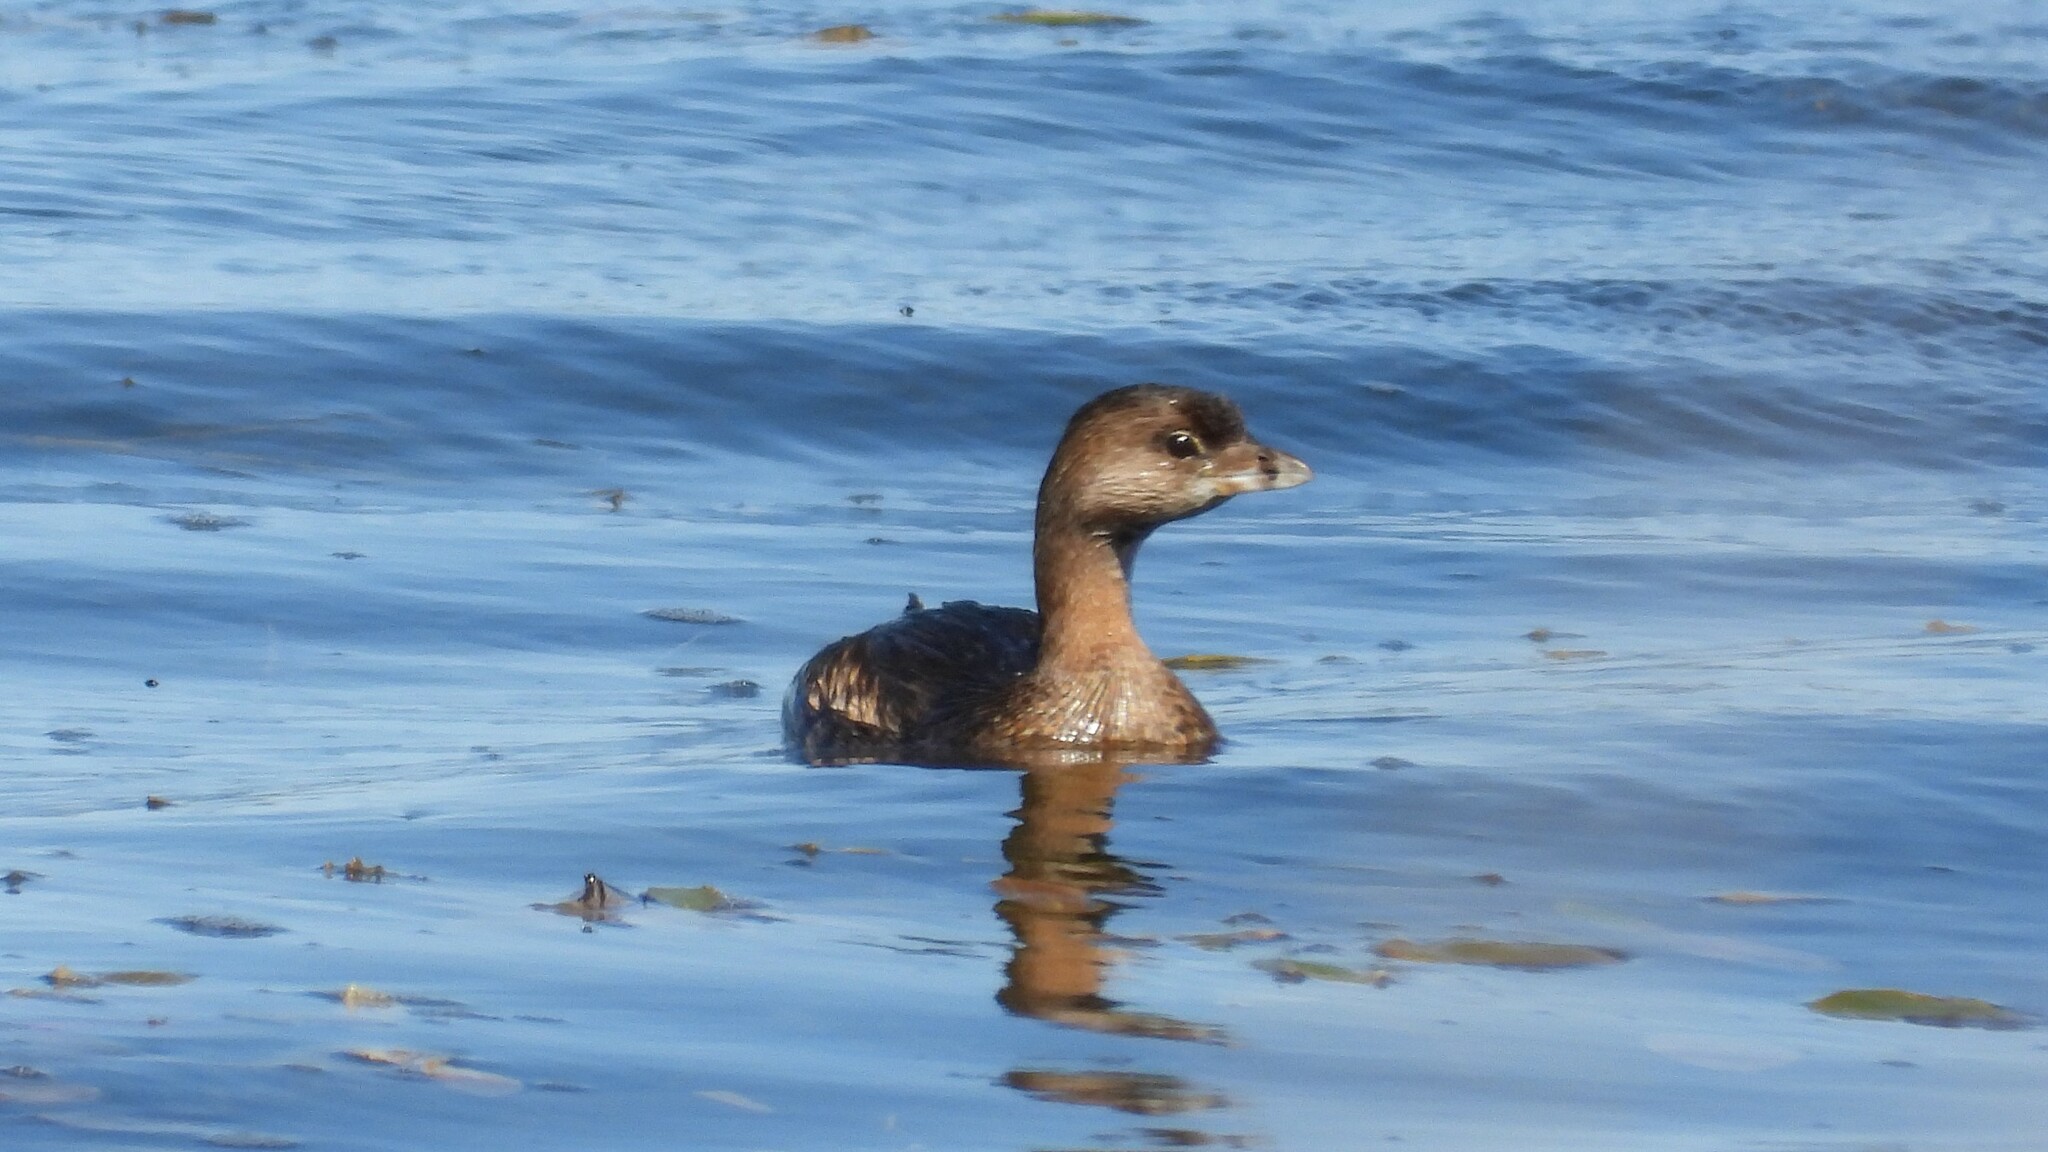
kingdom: Animalia
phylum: Chordata
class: Aves
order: Podicipediformes
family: Podicipedidae
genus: Podilymbus
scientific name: Podilymbus podiceps
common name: Pied-billed grebe
